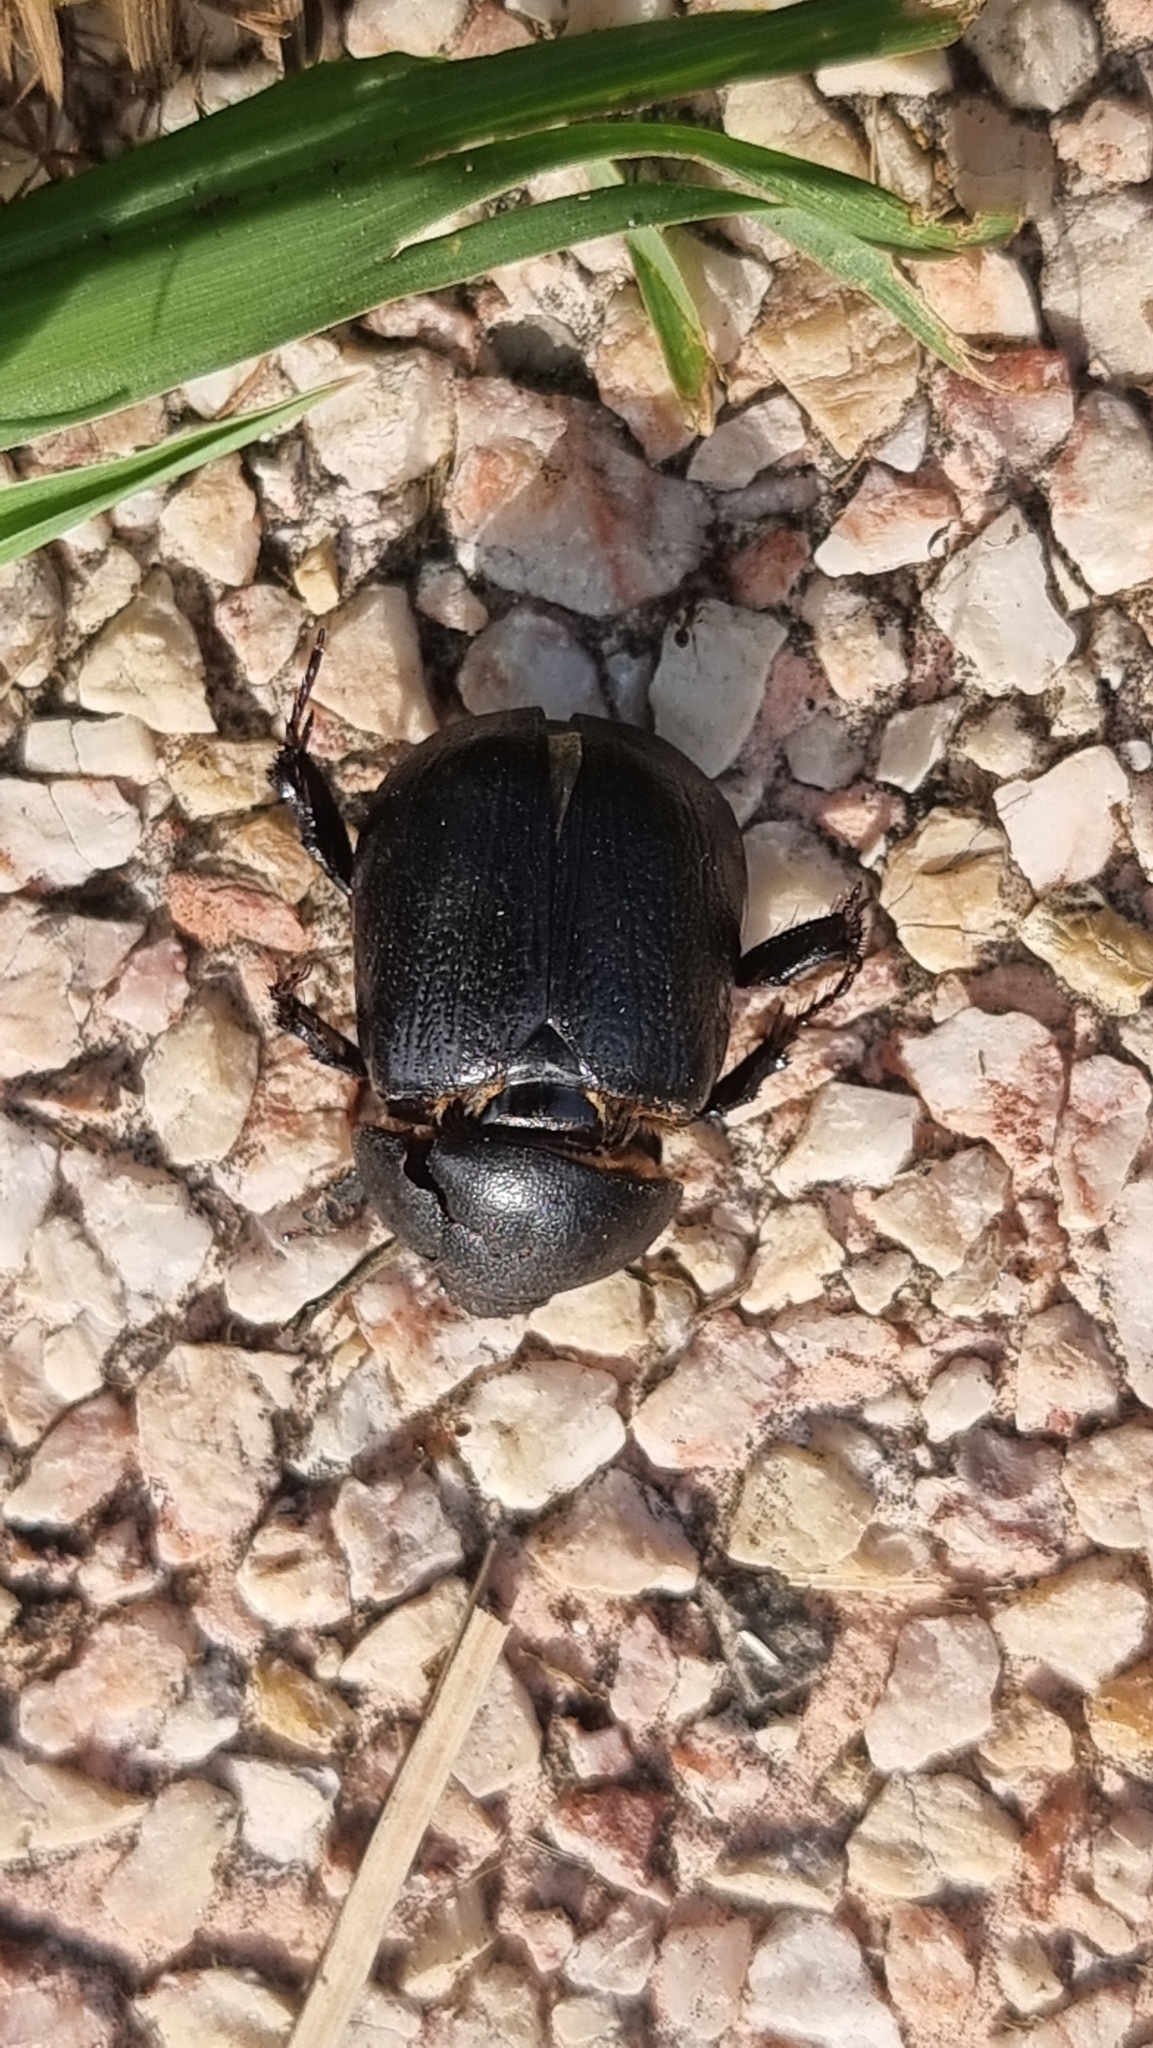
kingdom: Animalia
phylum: Arthropoda
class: Insecta
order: Coleoptera
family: Scarabaeidae
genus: Pentodon
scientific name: Pentodon bidens
